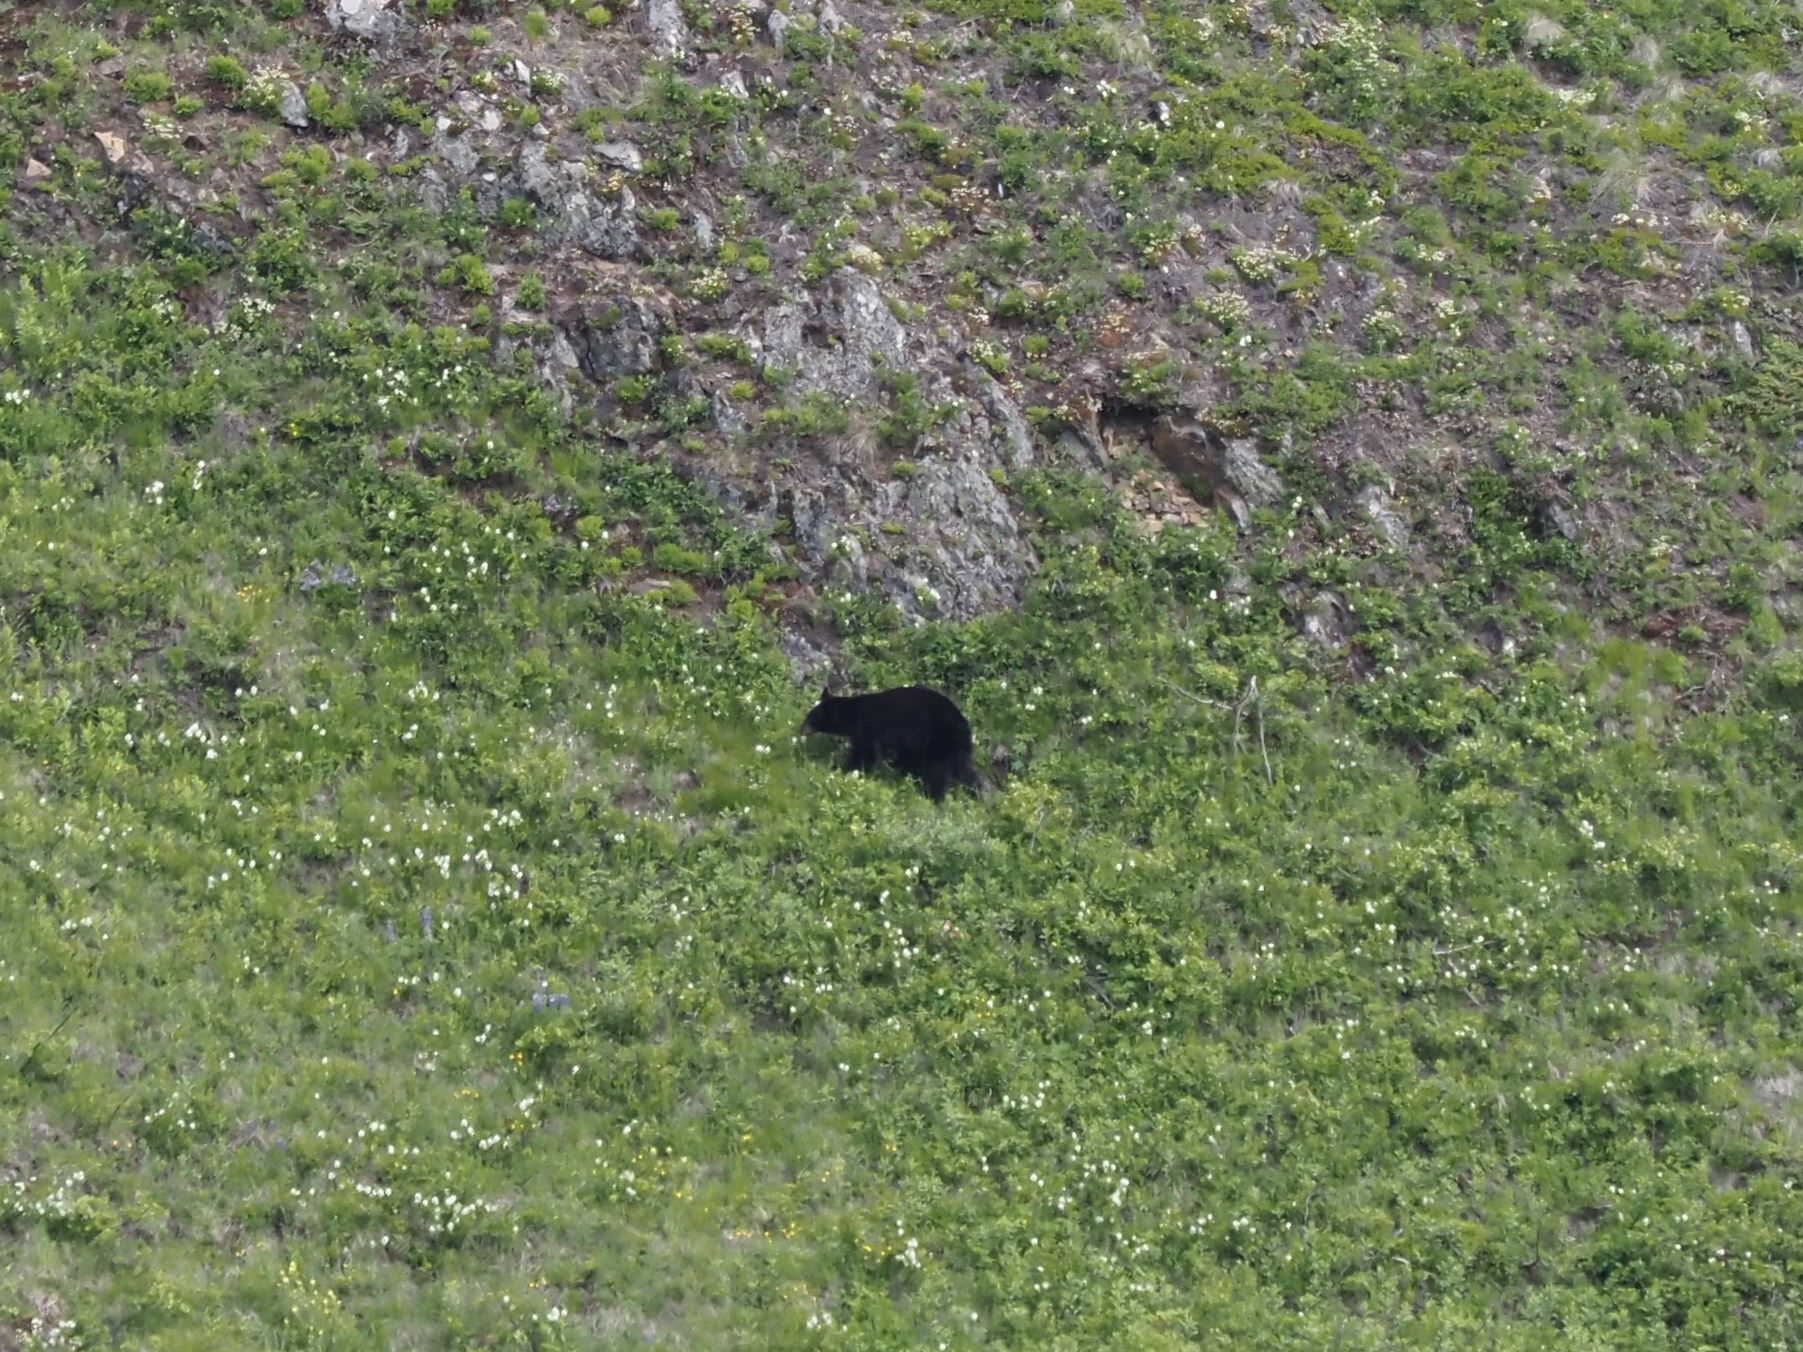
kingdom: Animalia
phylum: Chordata
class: Mammalia
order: Carnivora
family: Ursidae
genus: Ursus
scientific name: Ursus americanus
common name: American black bear
